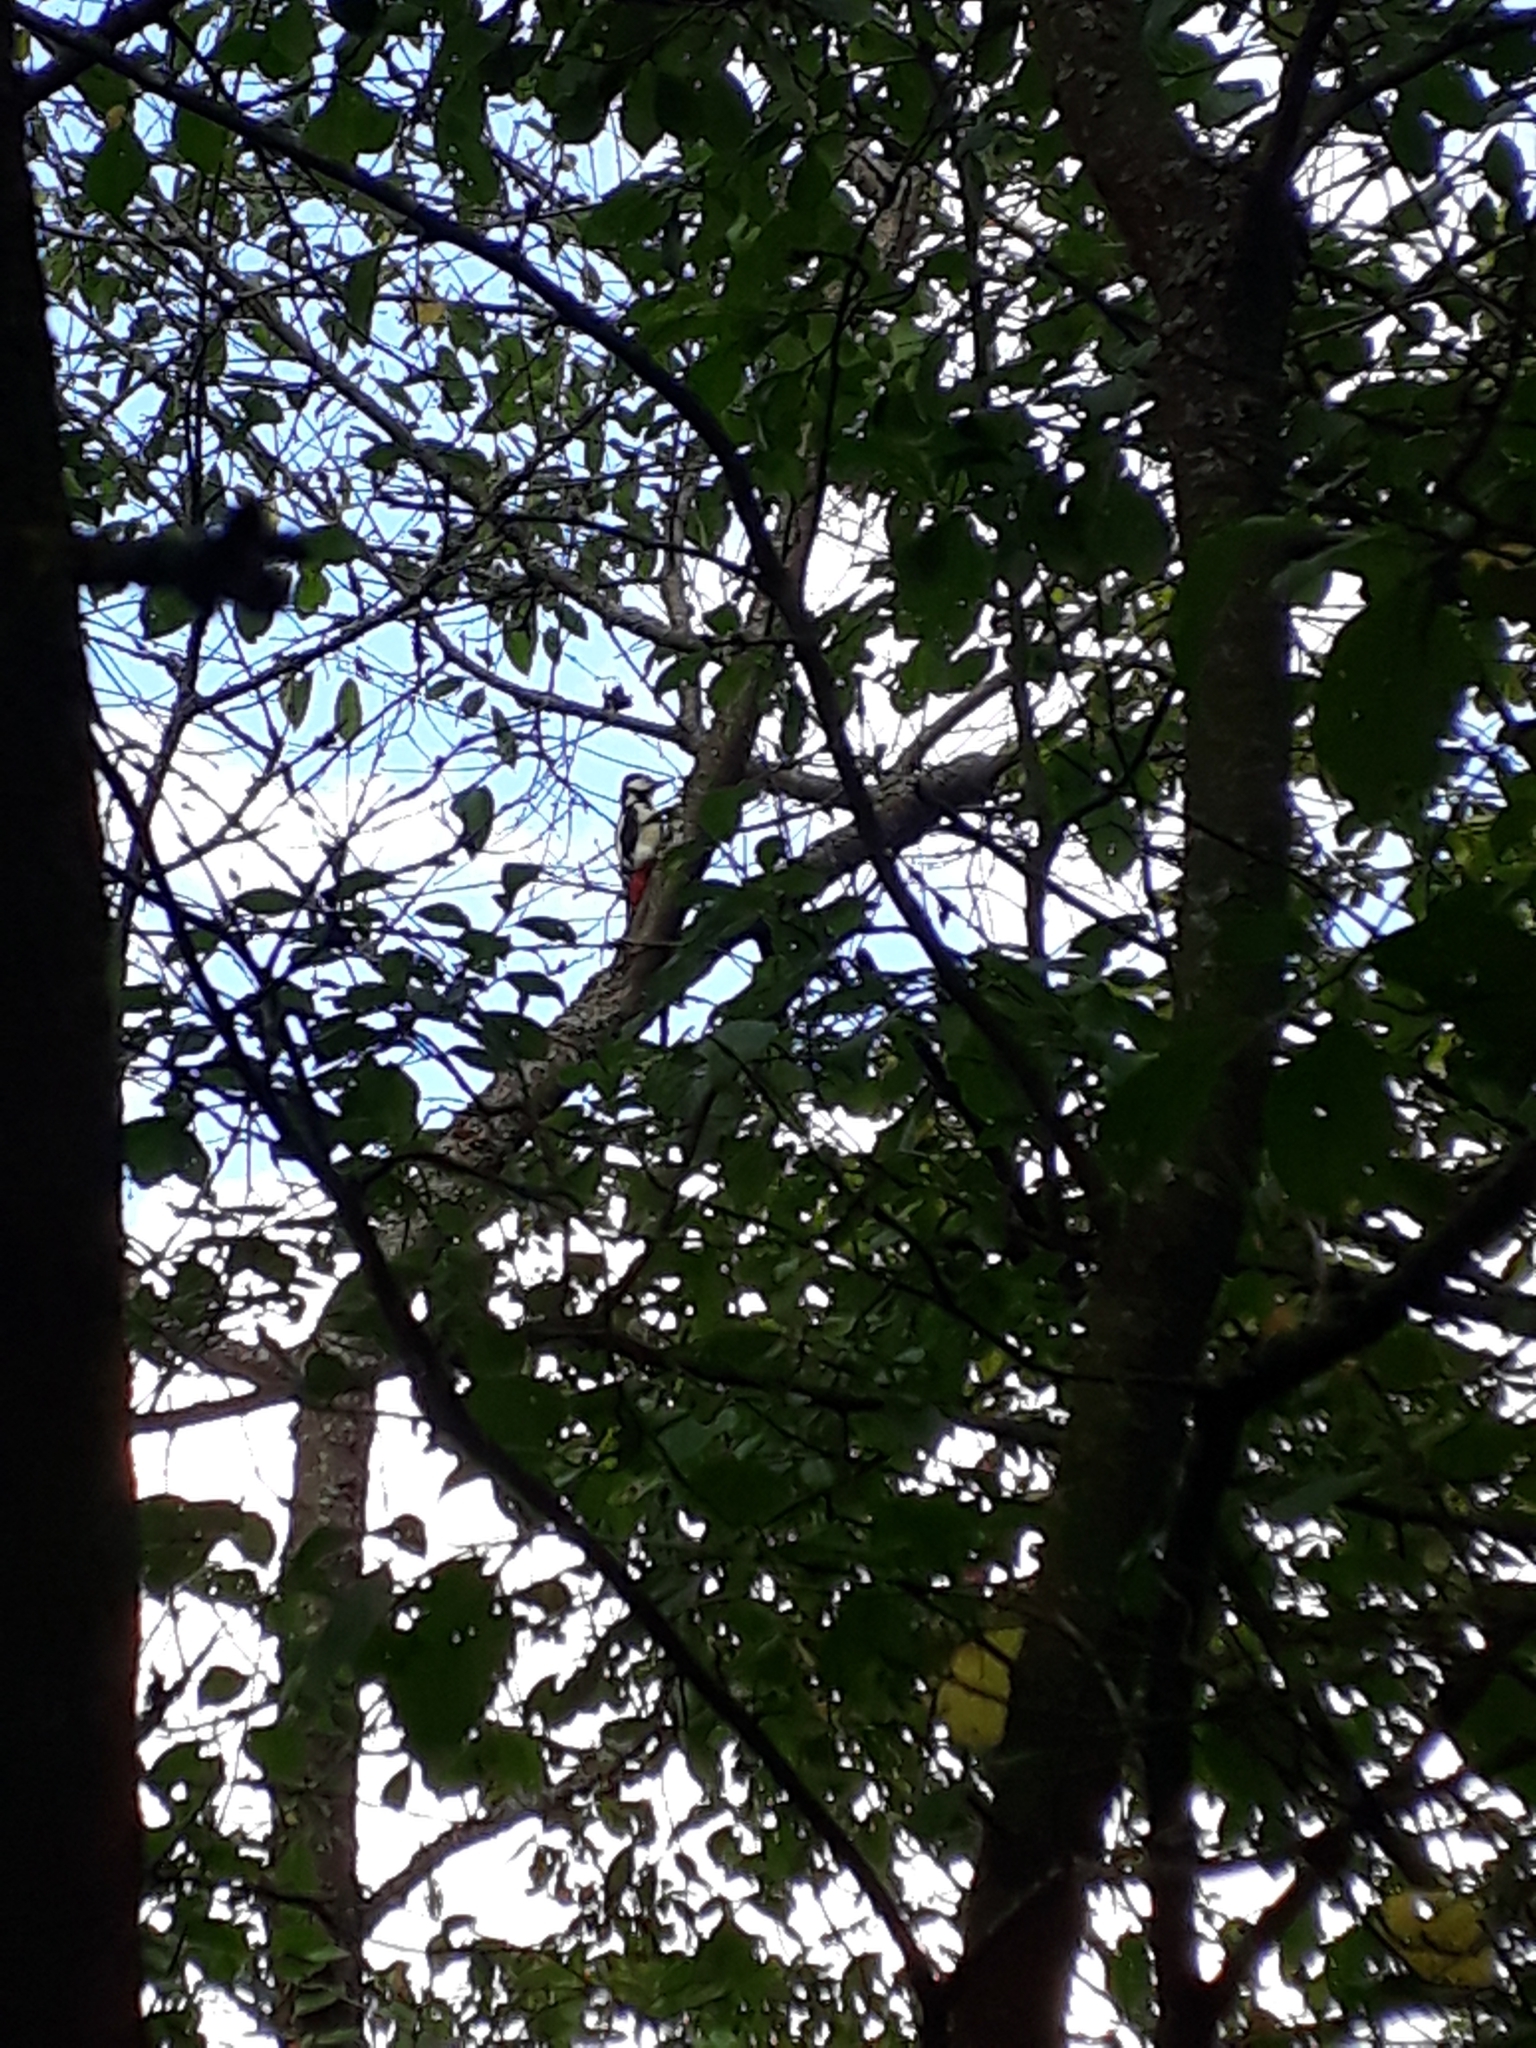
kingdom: Animalia
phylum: Chordata
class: Aves
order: Piciformes
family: Picidae
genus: Dendrocopos
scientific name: Dendrocopos major
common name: Great spotted woodpecker
